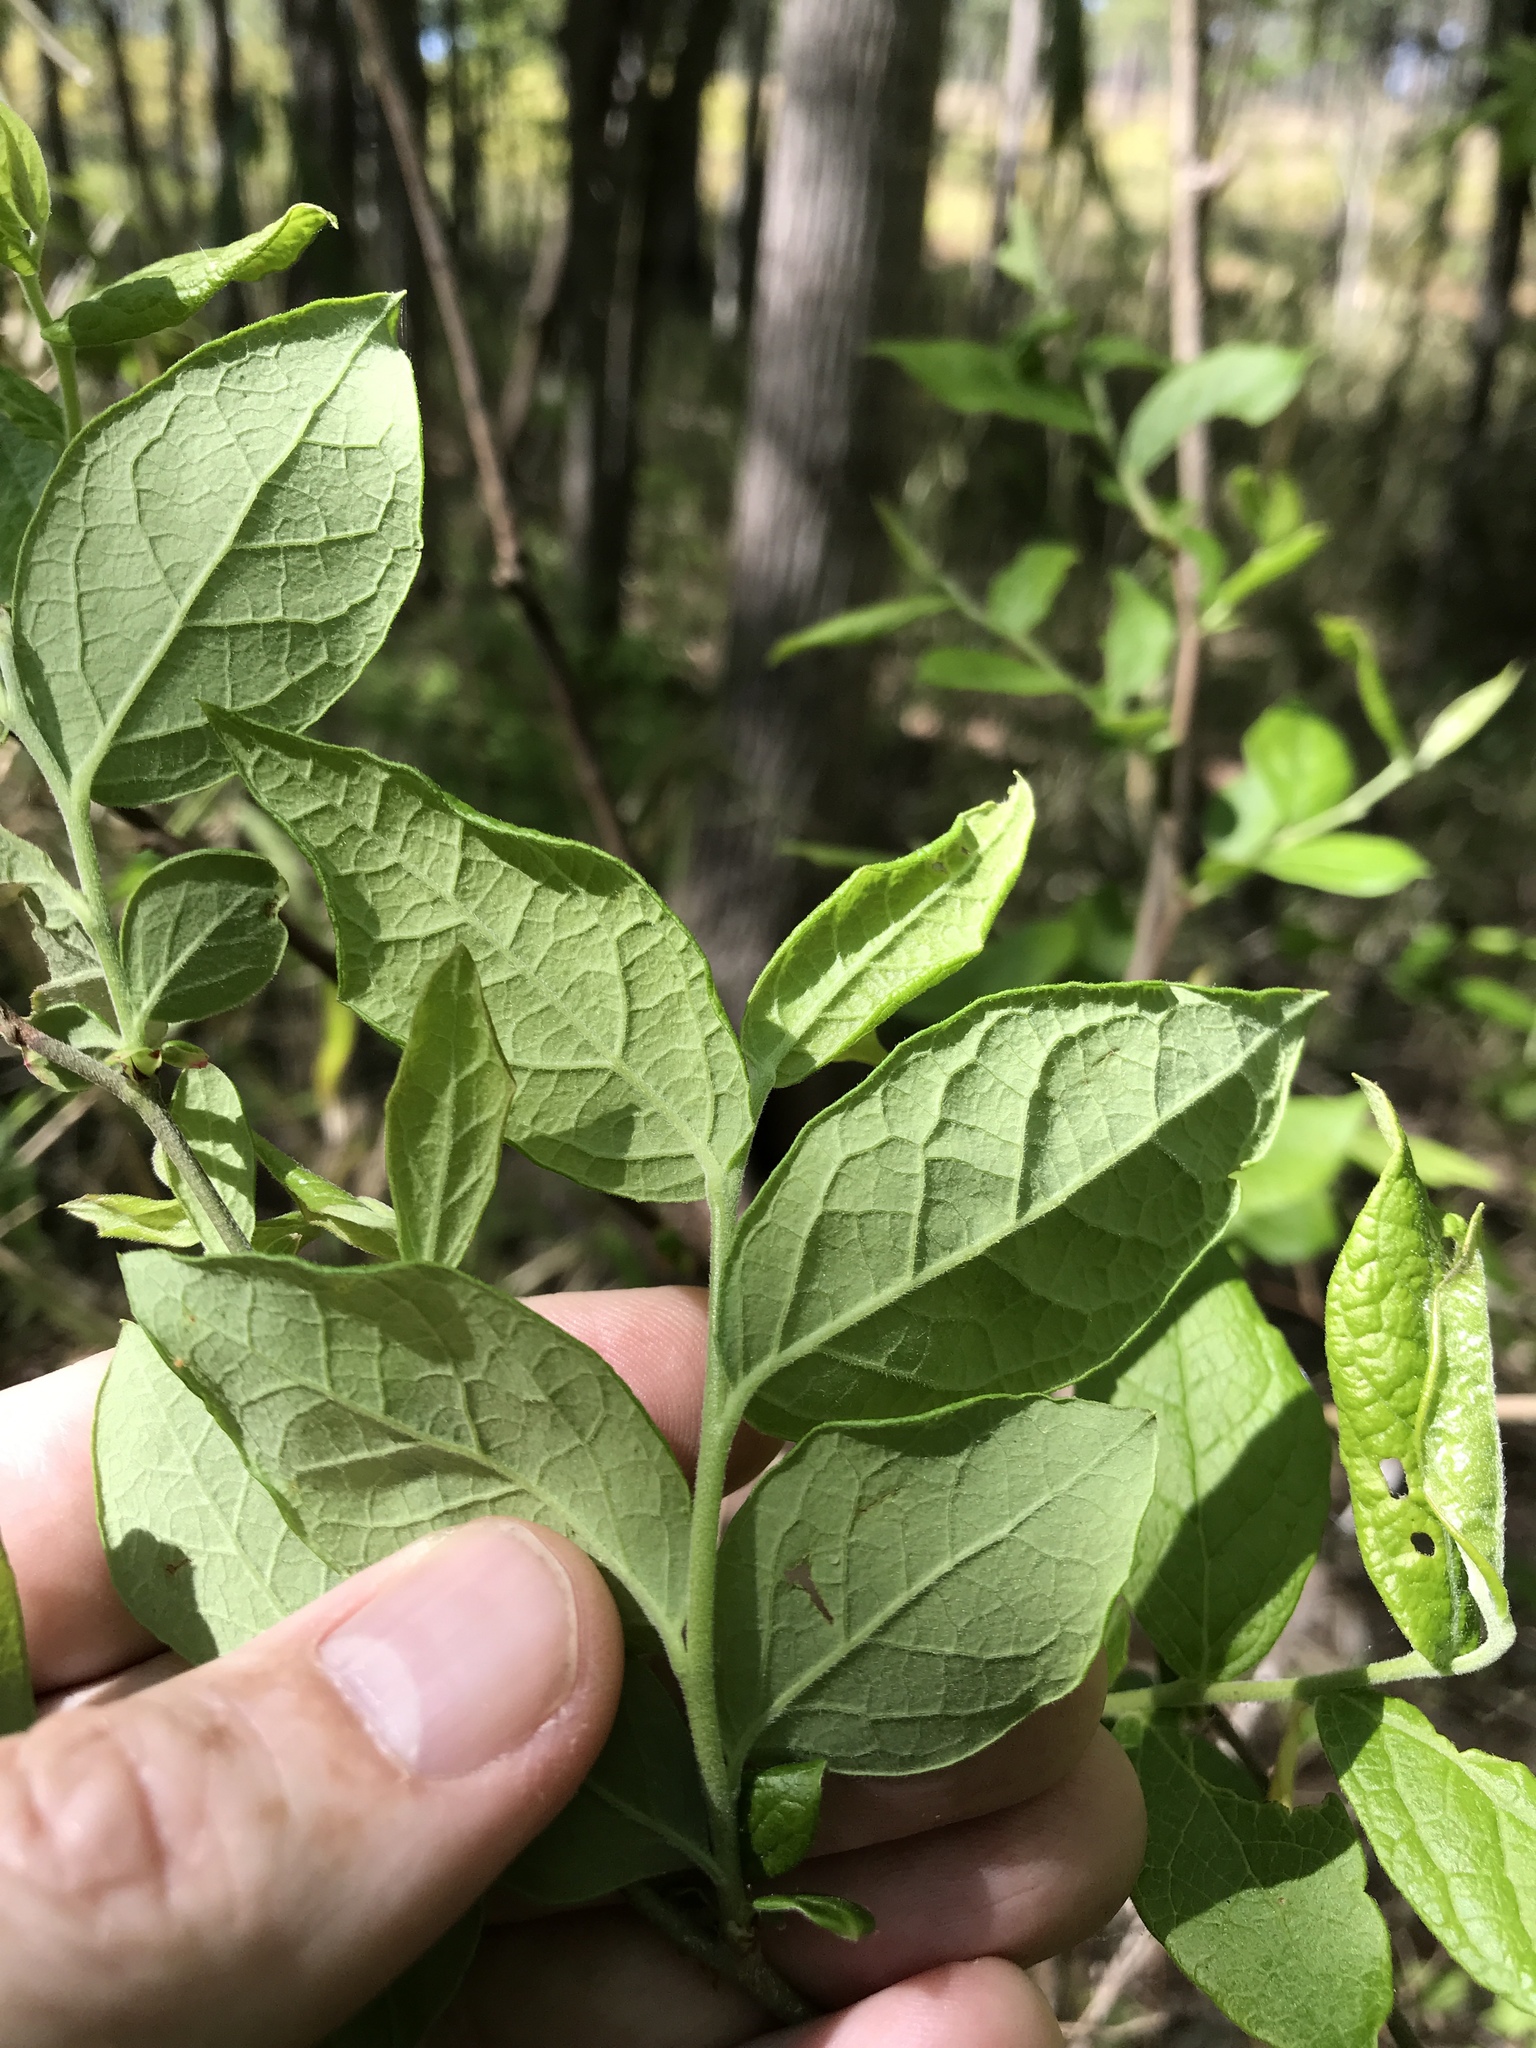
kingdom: Plantae
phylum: Tracheophyta
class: Magnoliopsida
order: Ericales
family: Ericaceae
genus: Vaccinium
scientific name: Vaccinium corymbosum
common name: Blueberry
